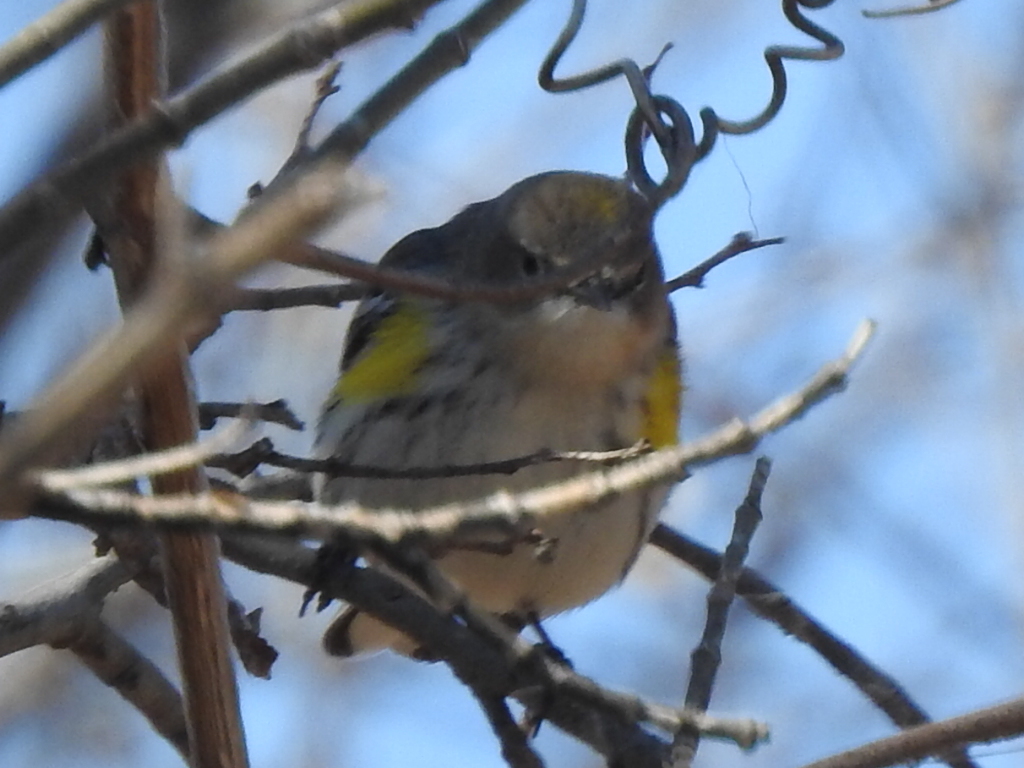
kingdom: Animalia
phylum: Chordata
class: Aves
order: Passeriformes
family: Parulidae
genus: Setophaga
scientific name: Setophaga coronata
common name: Myrtle warbler
